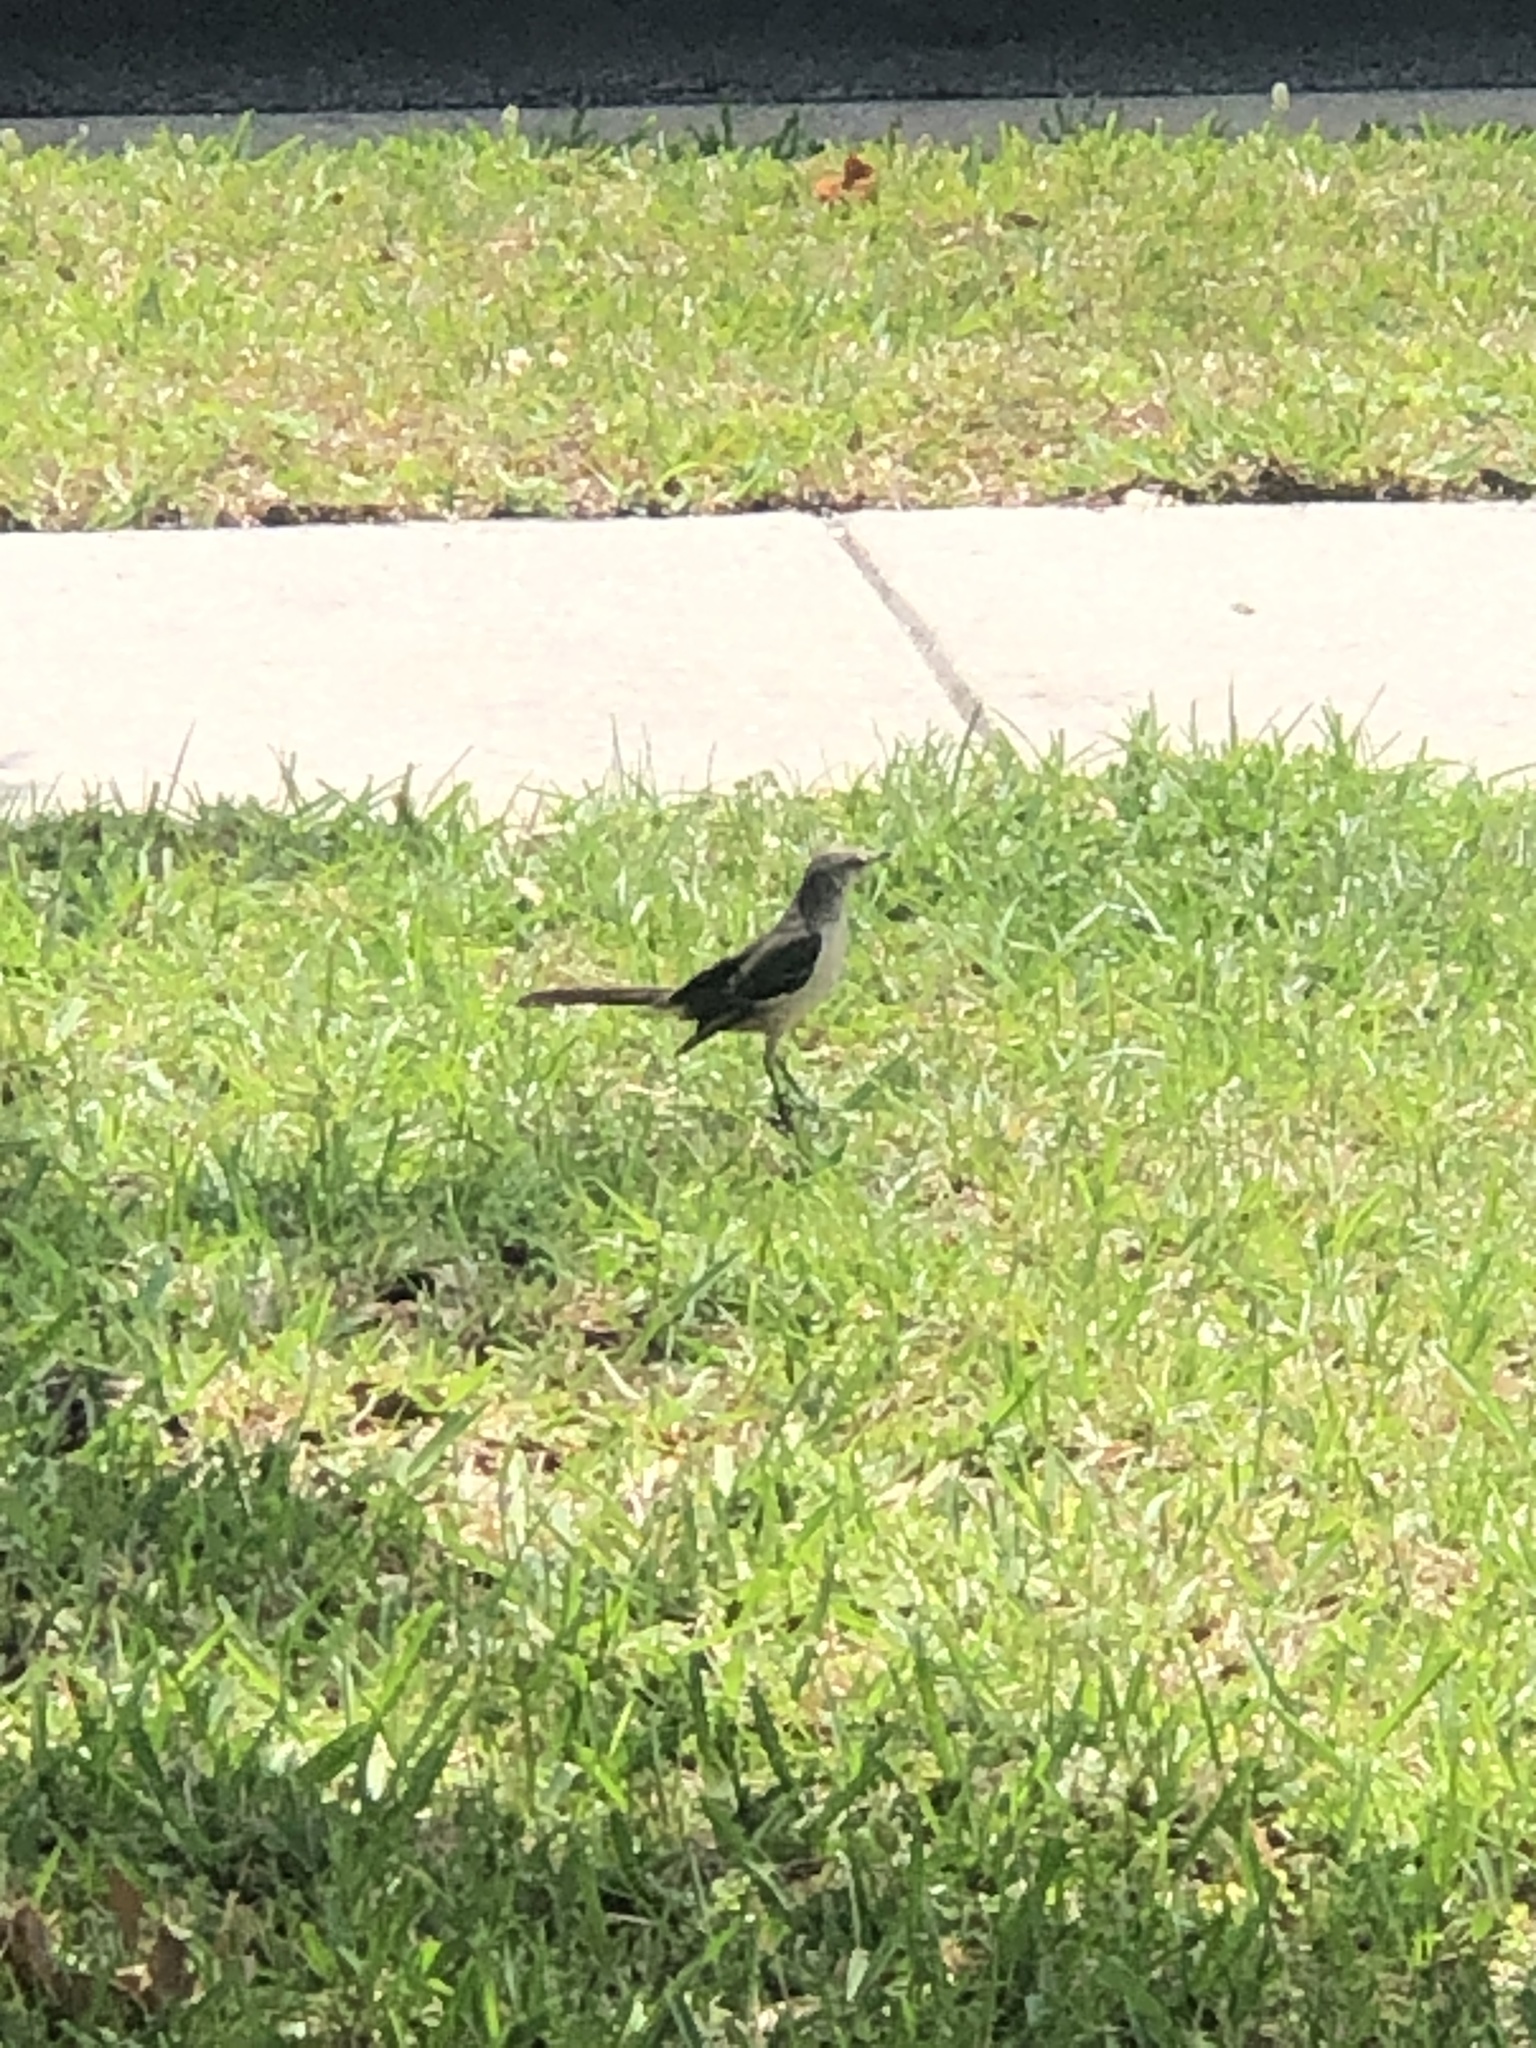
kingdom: Animalia
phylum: Chordata
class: Aves
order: Passeriformes
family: Mimidae
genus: Mimus
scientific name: Mimus polyglottos
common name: Northern mockingbird
